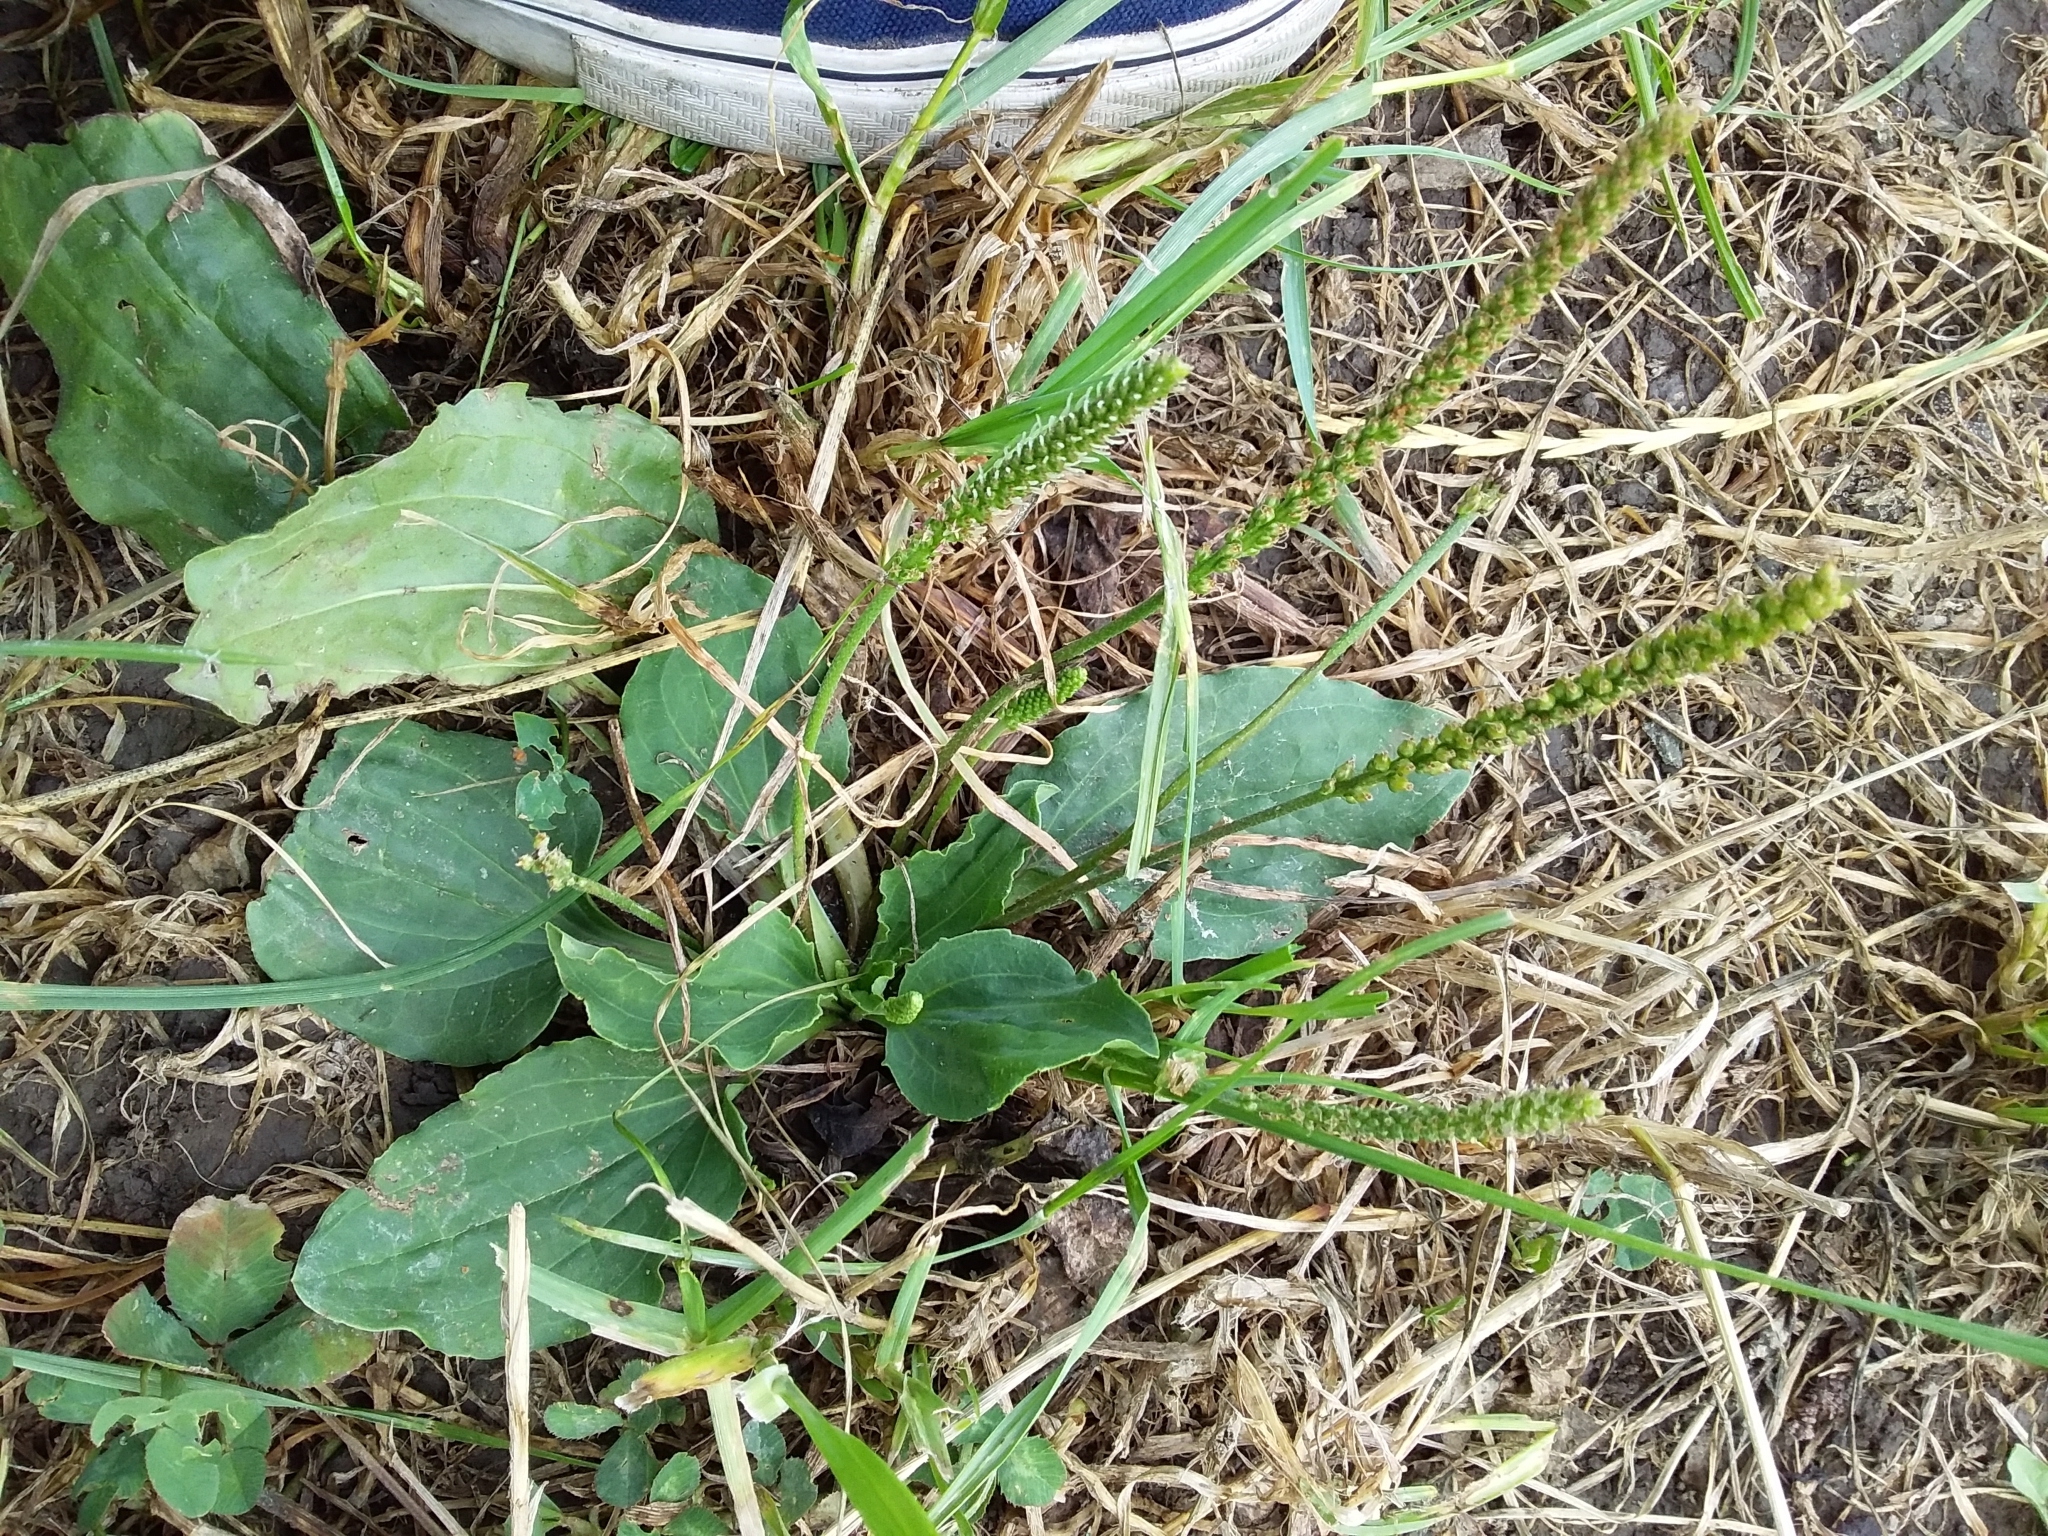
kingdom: Plantae
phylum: Tracheophyta
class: Magnoliopsida
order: Lamiales
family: Plantaginaceae
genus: Plantago
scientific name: Plantago major
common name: Common plantain
